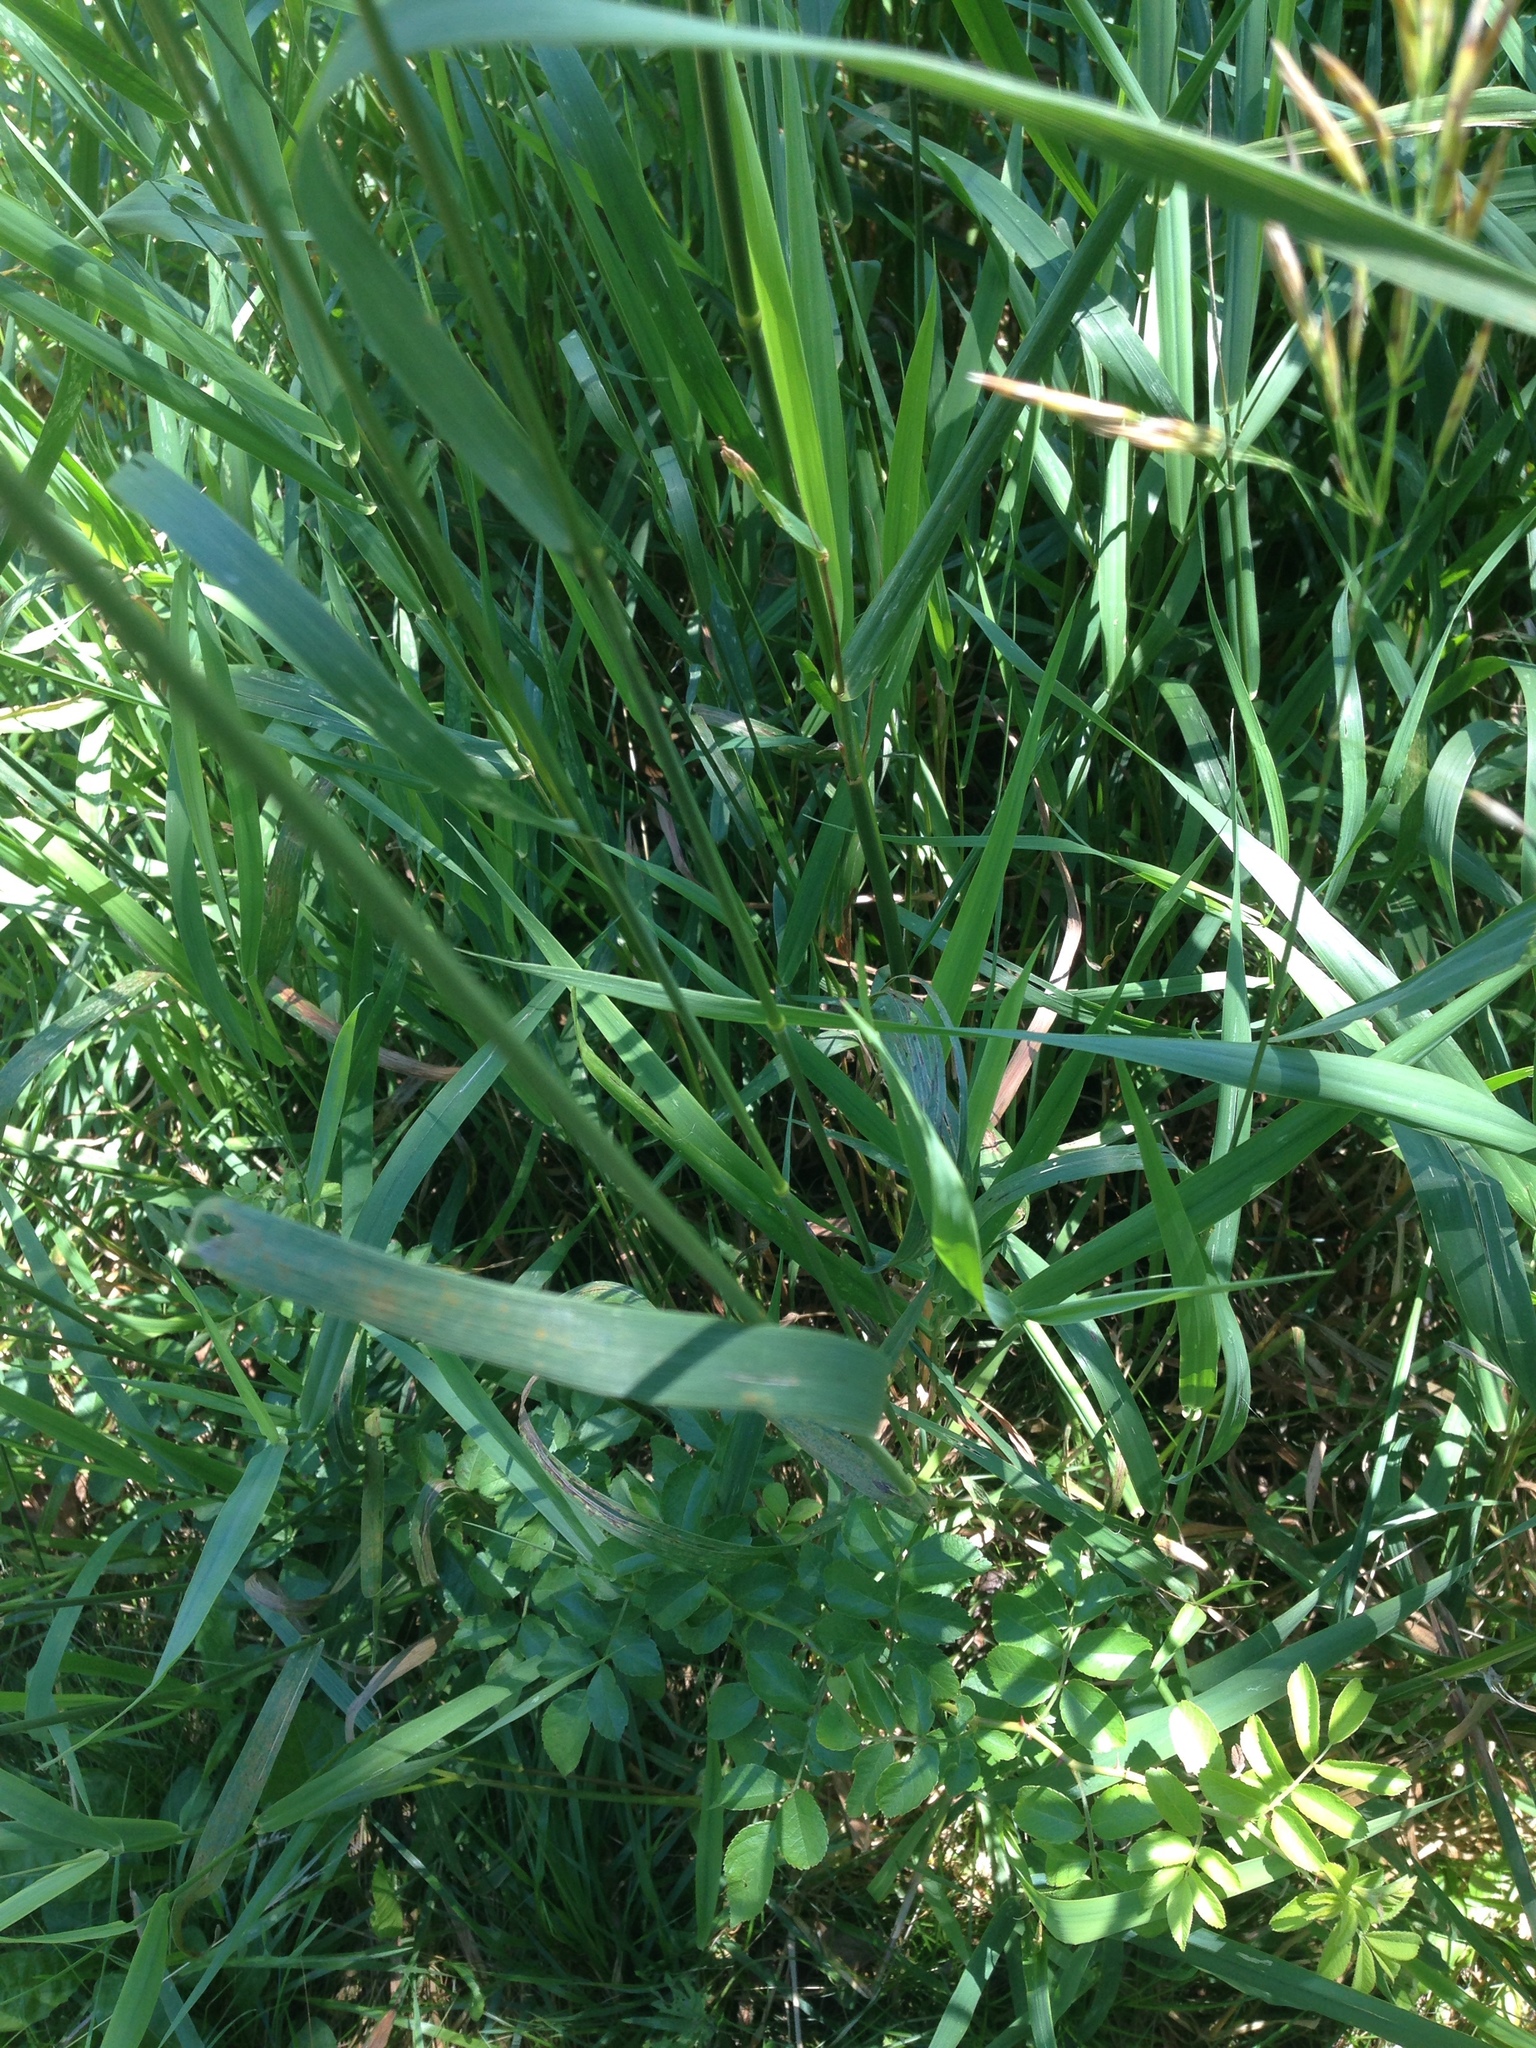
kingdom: Plantae
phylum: Tracheophyta
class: Liliopsida
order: Poales
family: Poaceae
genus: Bromus
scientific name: Bromus inermis
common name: Smooth brome
